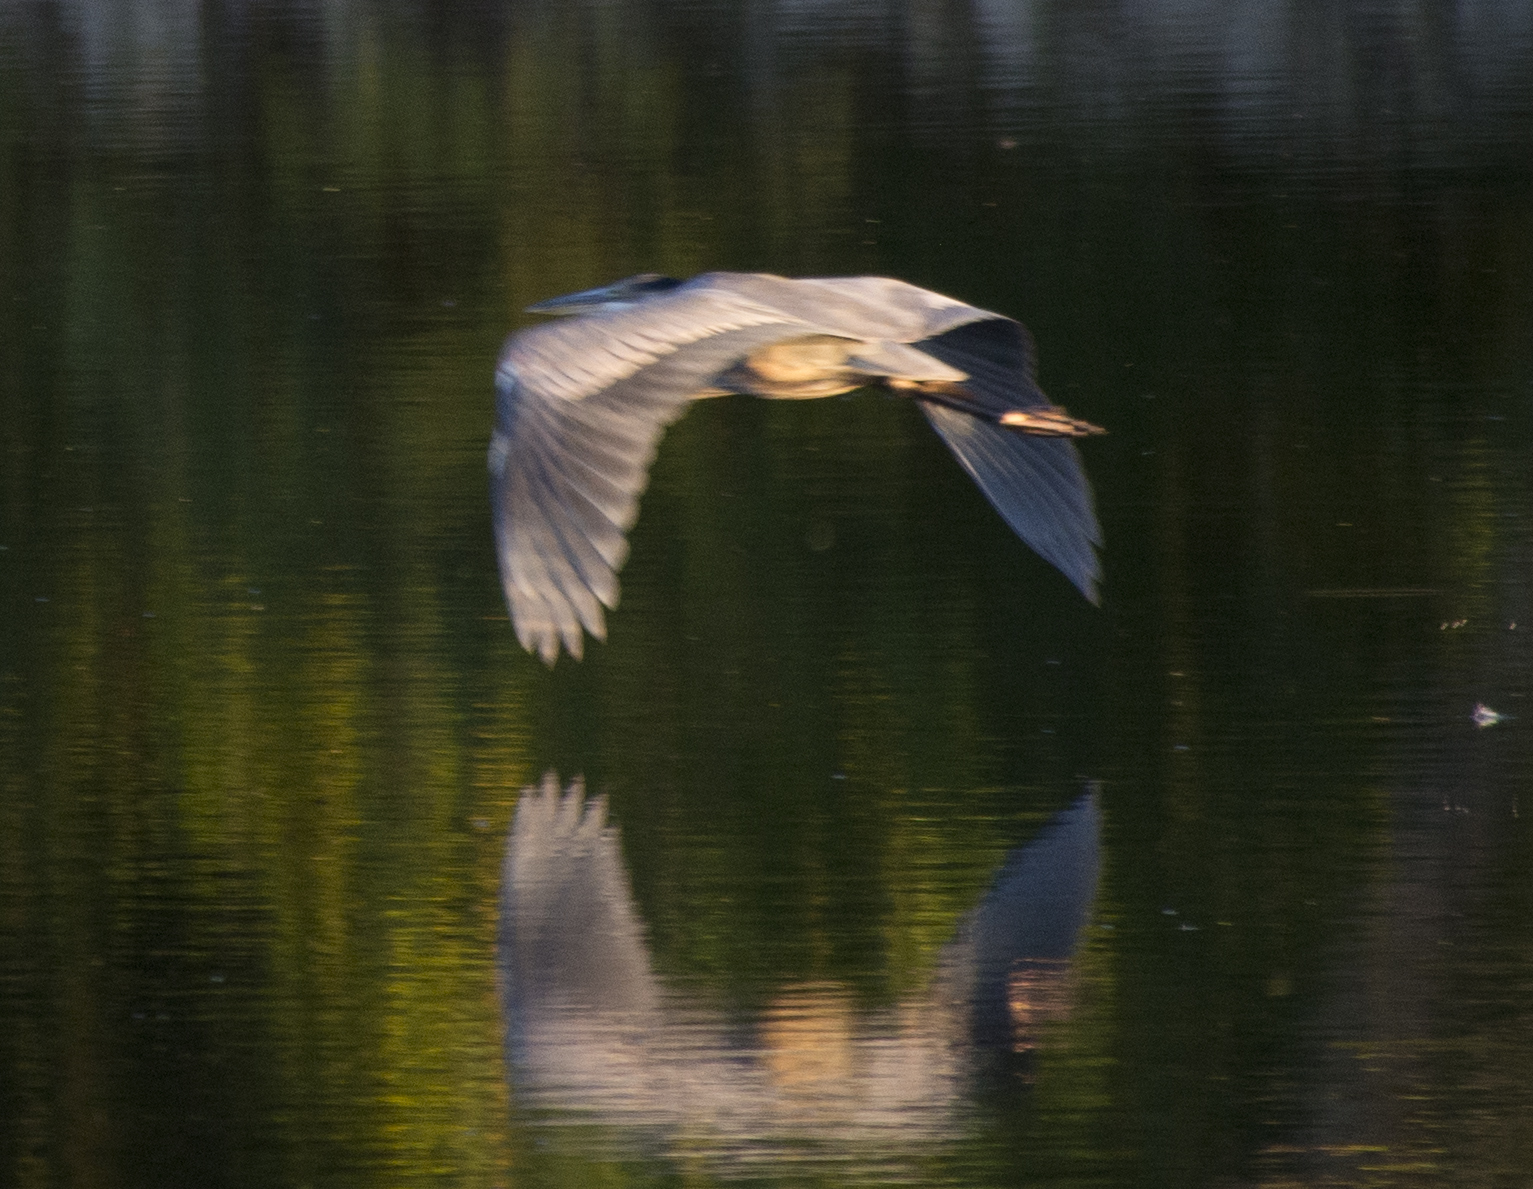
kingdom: Animalia
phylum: Chordata
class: Aves
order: Pelecaniformes
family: Ardeidae
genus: Ardea
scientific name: Ardea herodias
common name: Great blue heron
